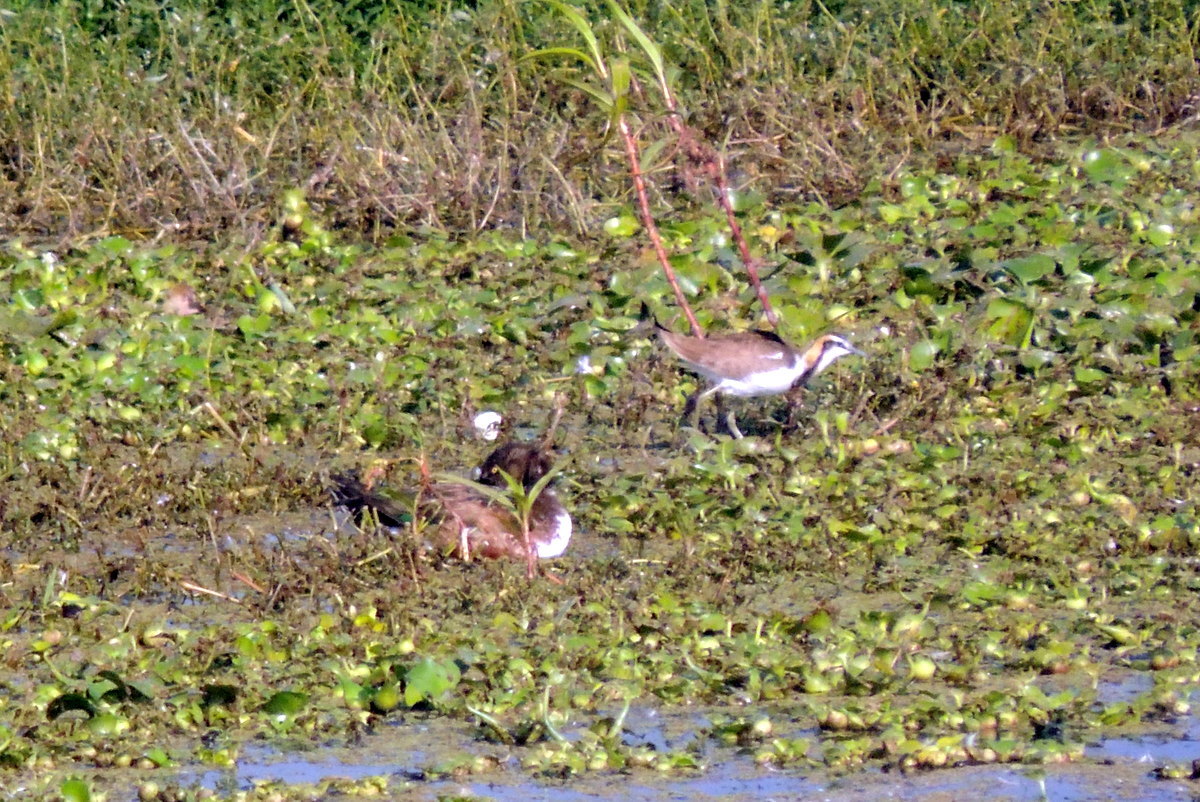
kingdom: Animalia
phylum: Chordata
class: Aves
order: Charadriiformes
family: Jacanidae
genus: Hydrophasianus
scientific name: Hydrophasianus chirurgus
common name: Pheasant-tailed jacana
